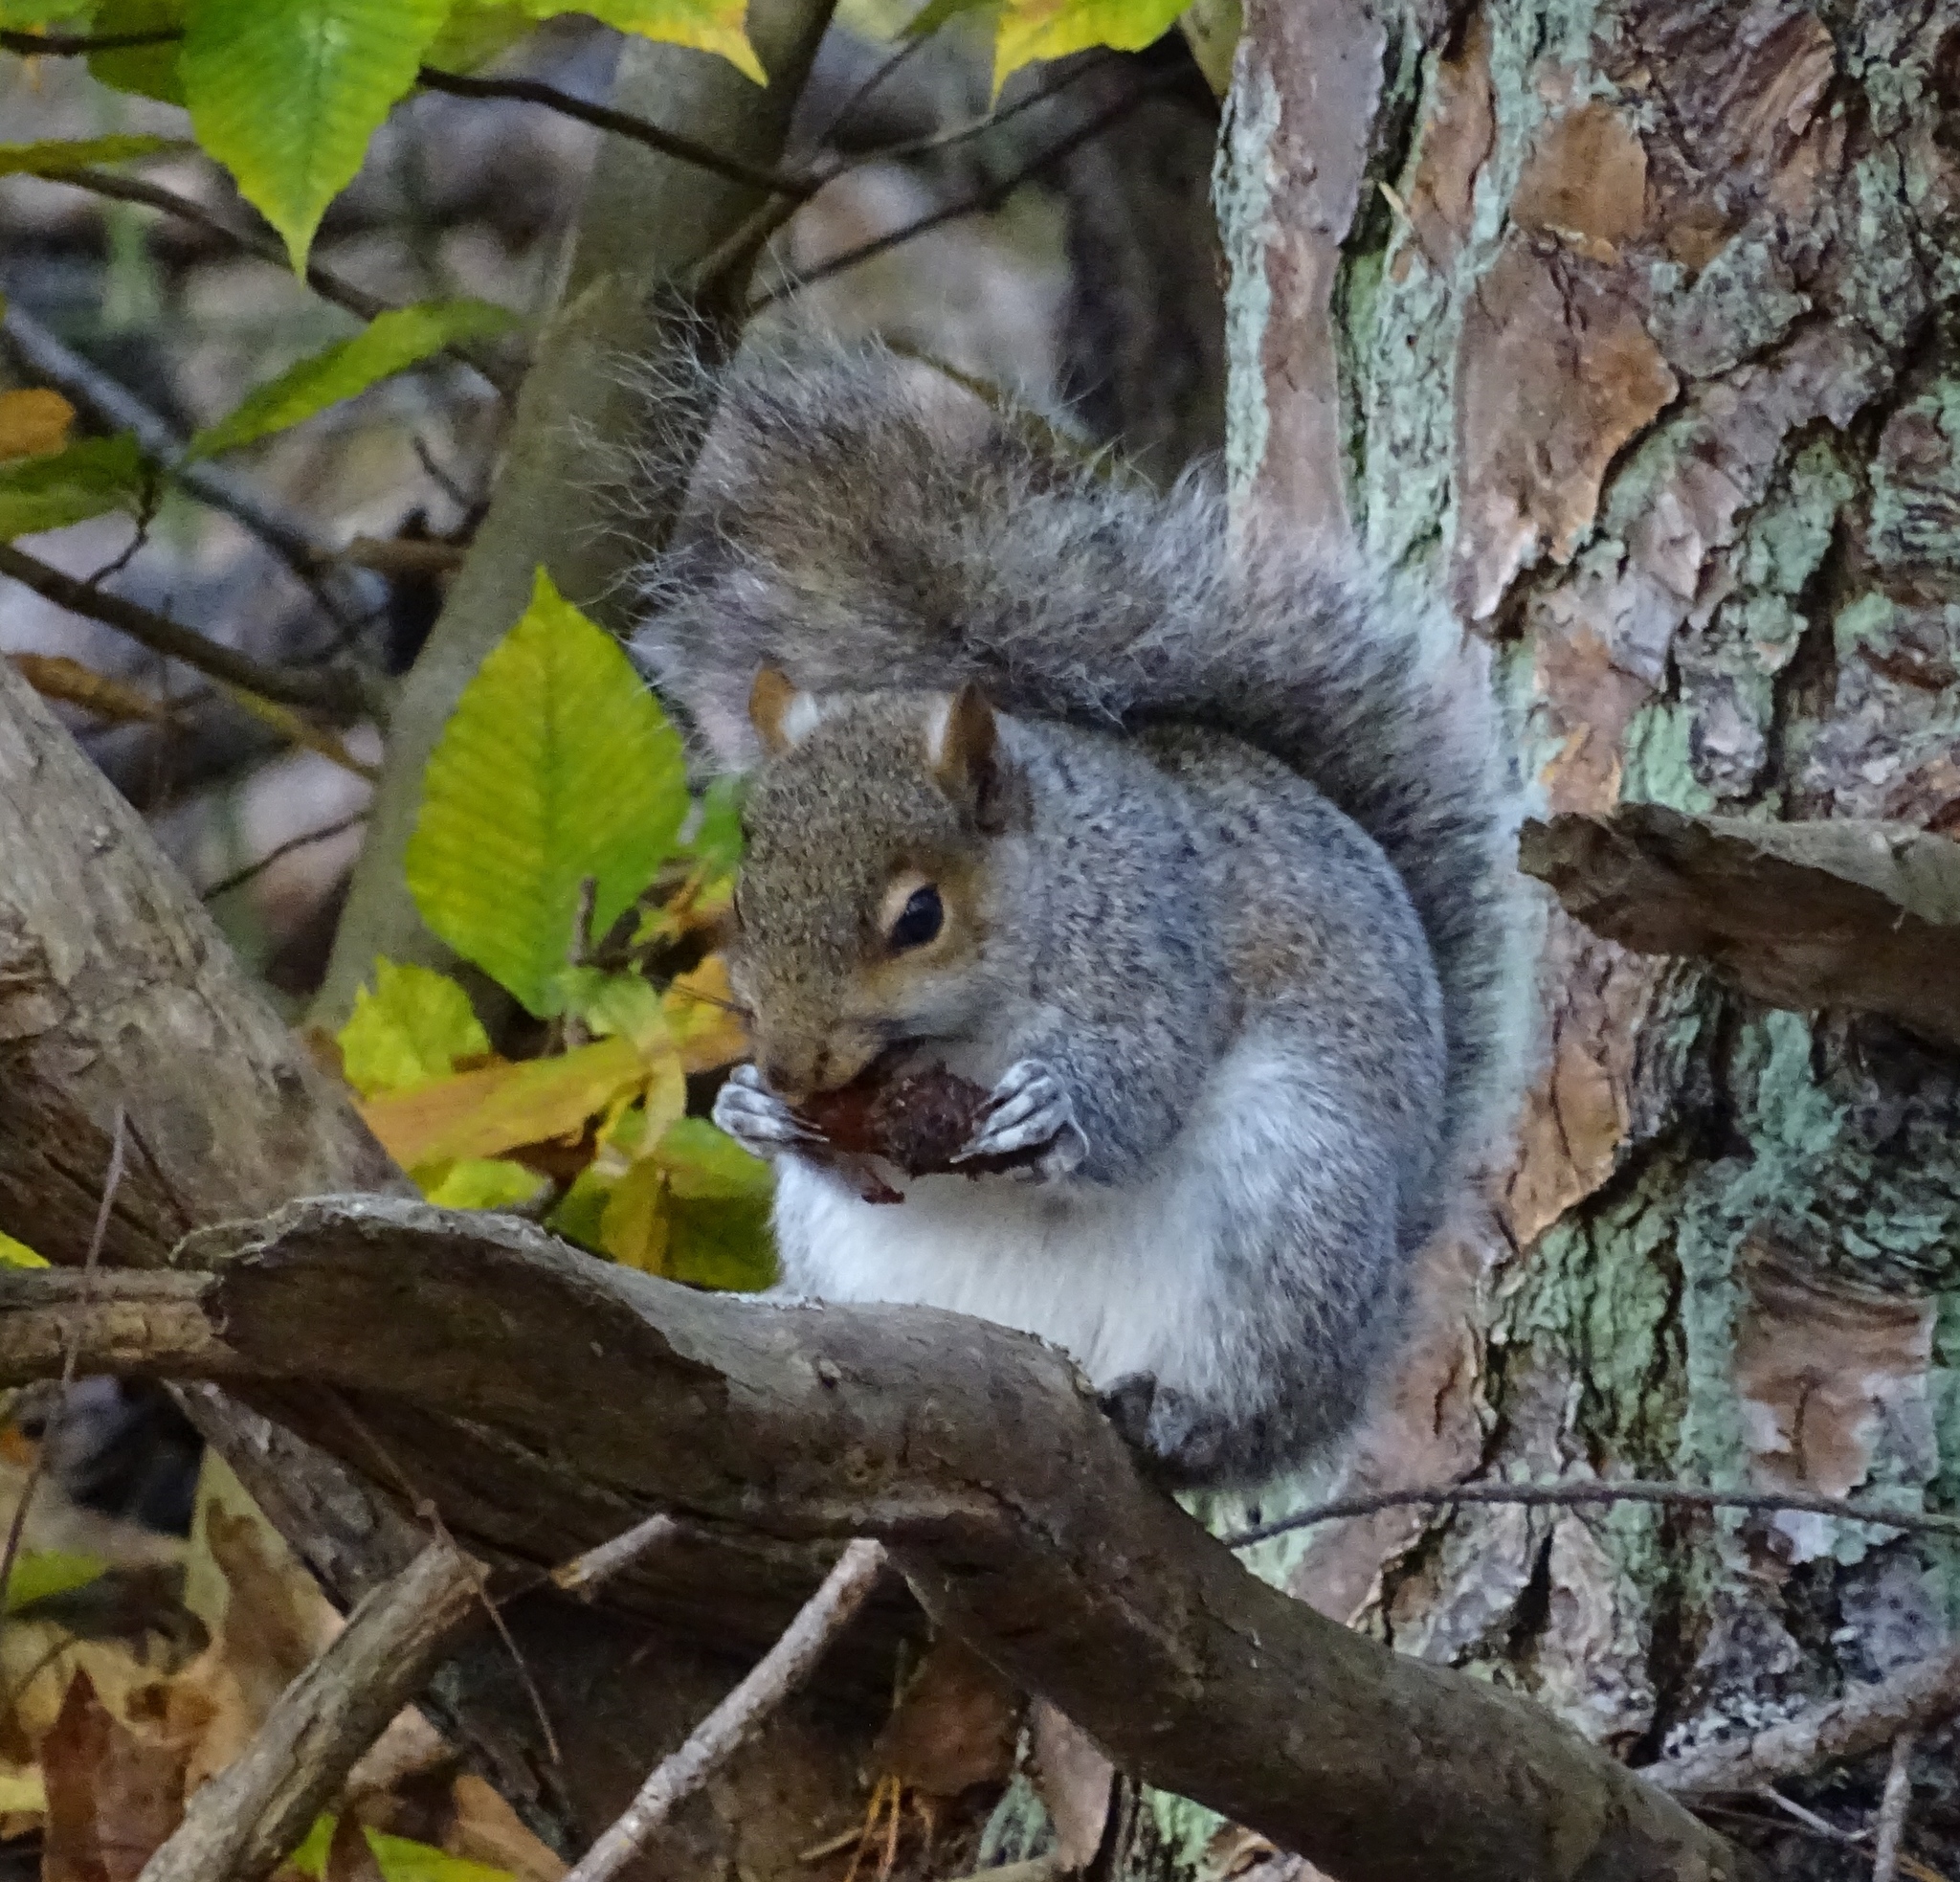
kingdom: Animalia
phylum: Chordata
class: Mammalia
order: Rodentia
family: Sciuridae
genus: Sciurus
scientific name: Sciurus carolinensis
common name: Eastern gray squirrel
